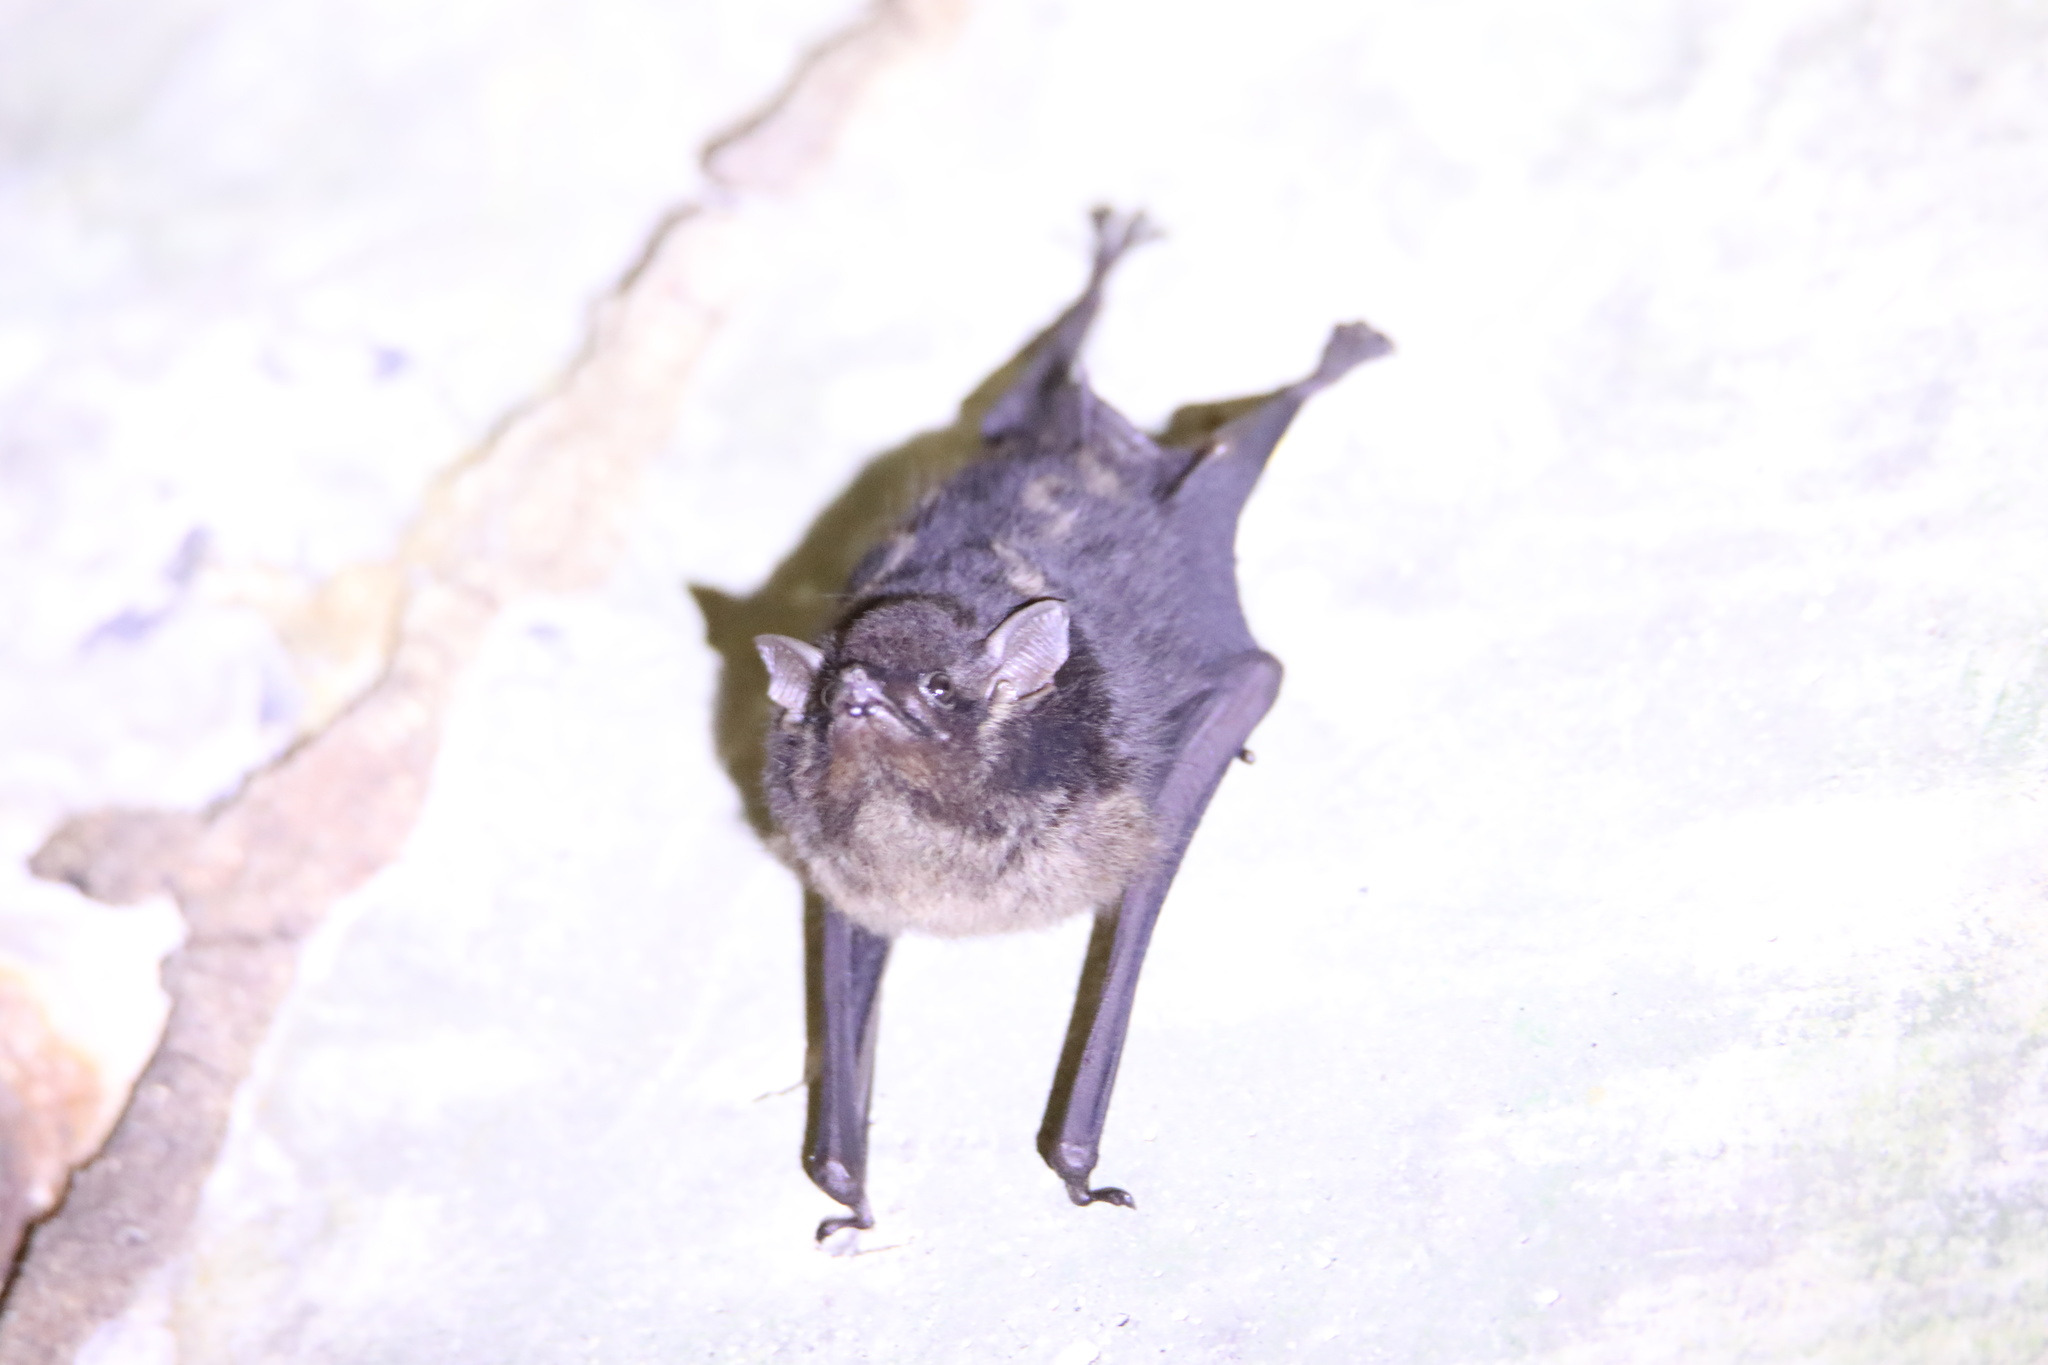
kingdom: Animalia
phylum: Chordata
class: Mammalia
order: Chiroptera
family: Emballonuridae
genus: Saccopteryx
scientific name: Saccopteryx bilineata
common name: Greater sac-winged bat
